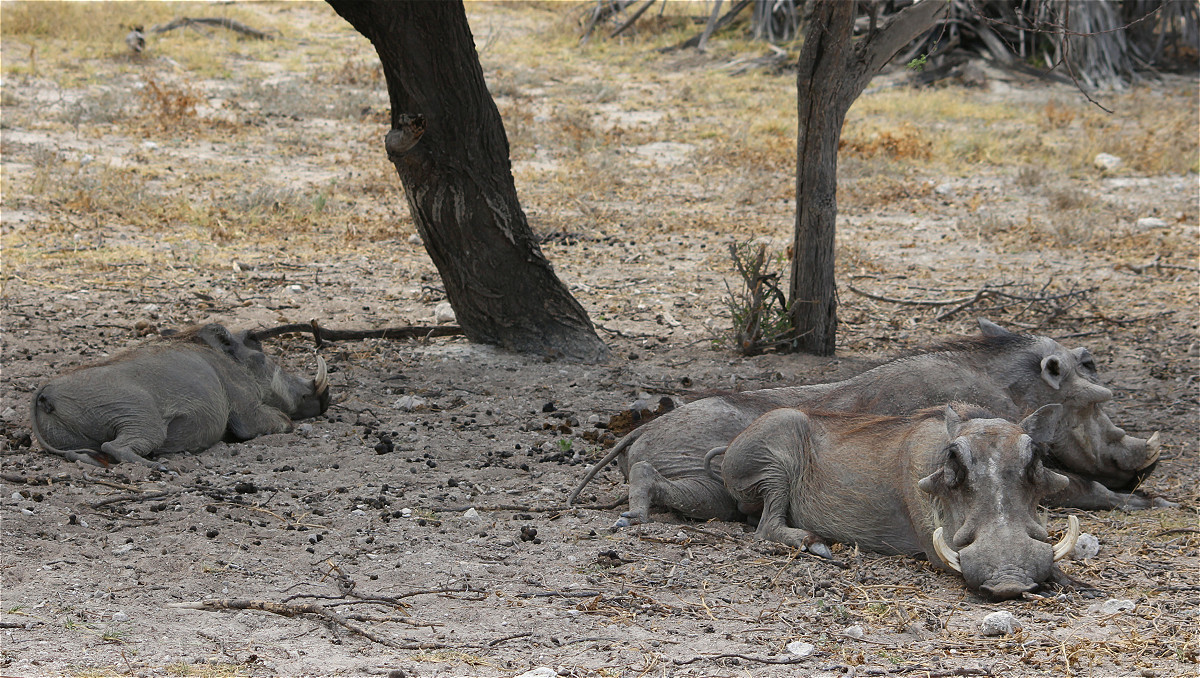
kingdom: Animalia
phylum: Chordata
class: Mammalia
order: Artiodactyla
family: Suidae
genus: Phacochoerus
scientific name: Phacochoerus africanus
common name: Common warthog
